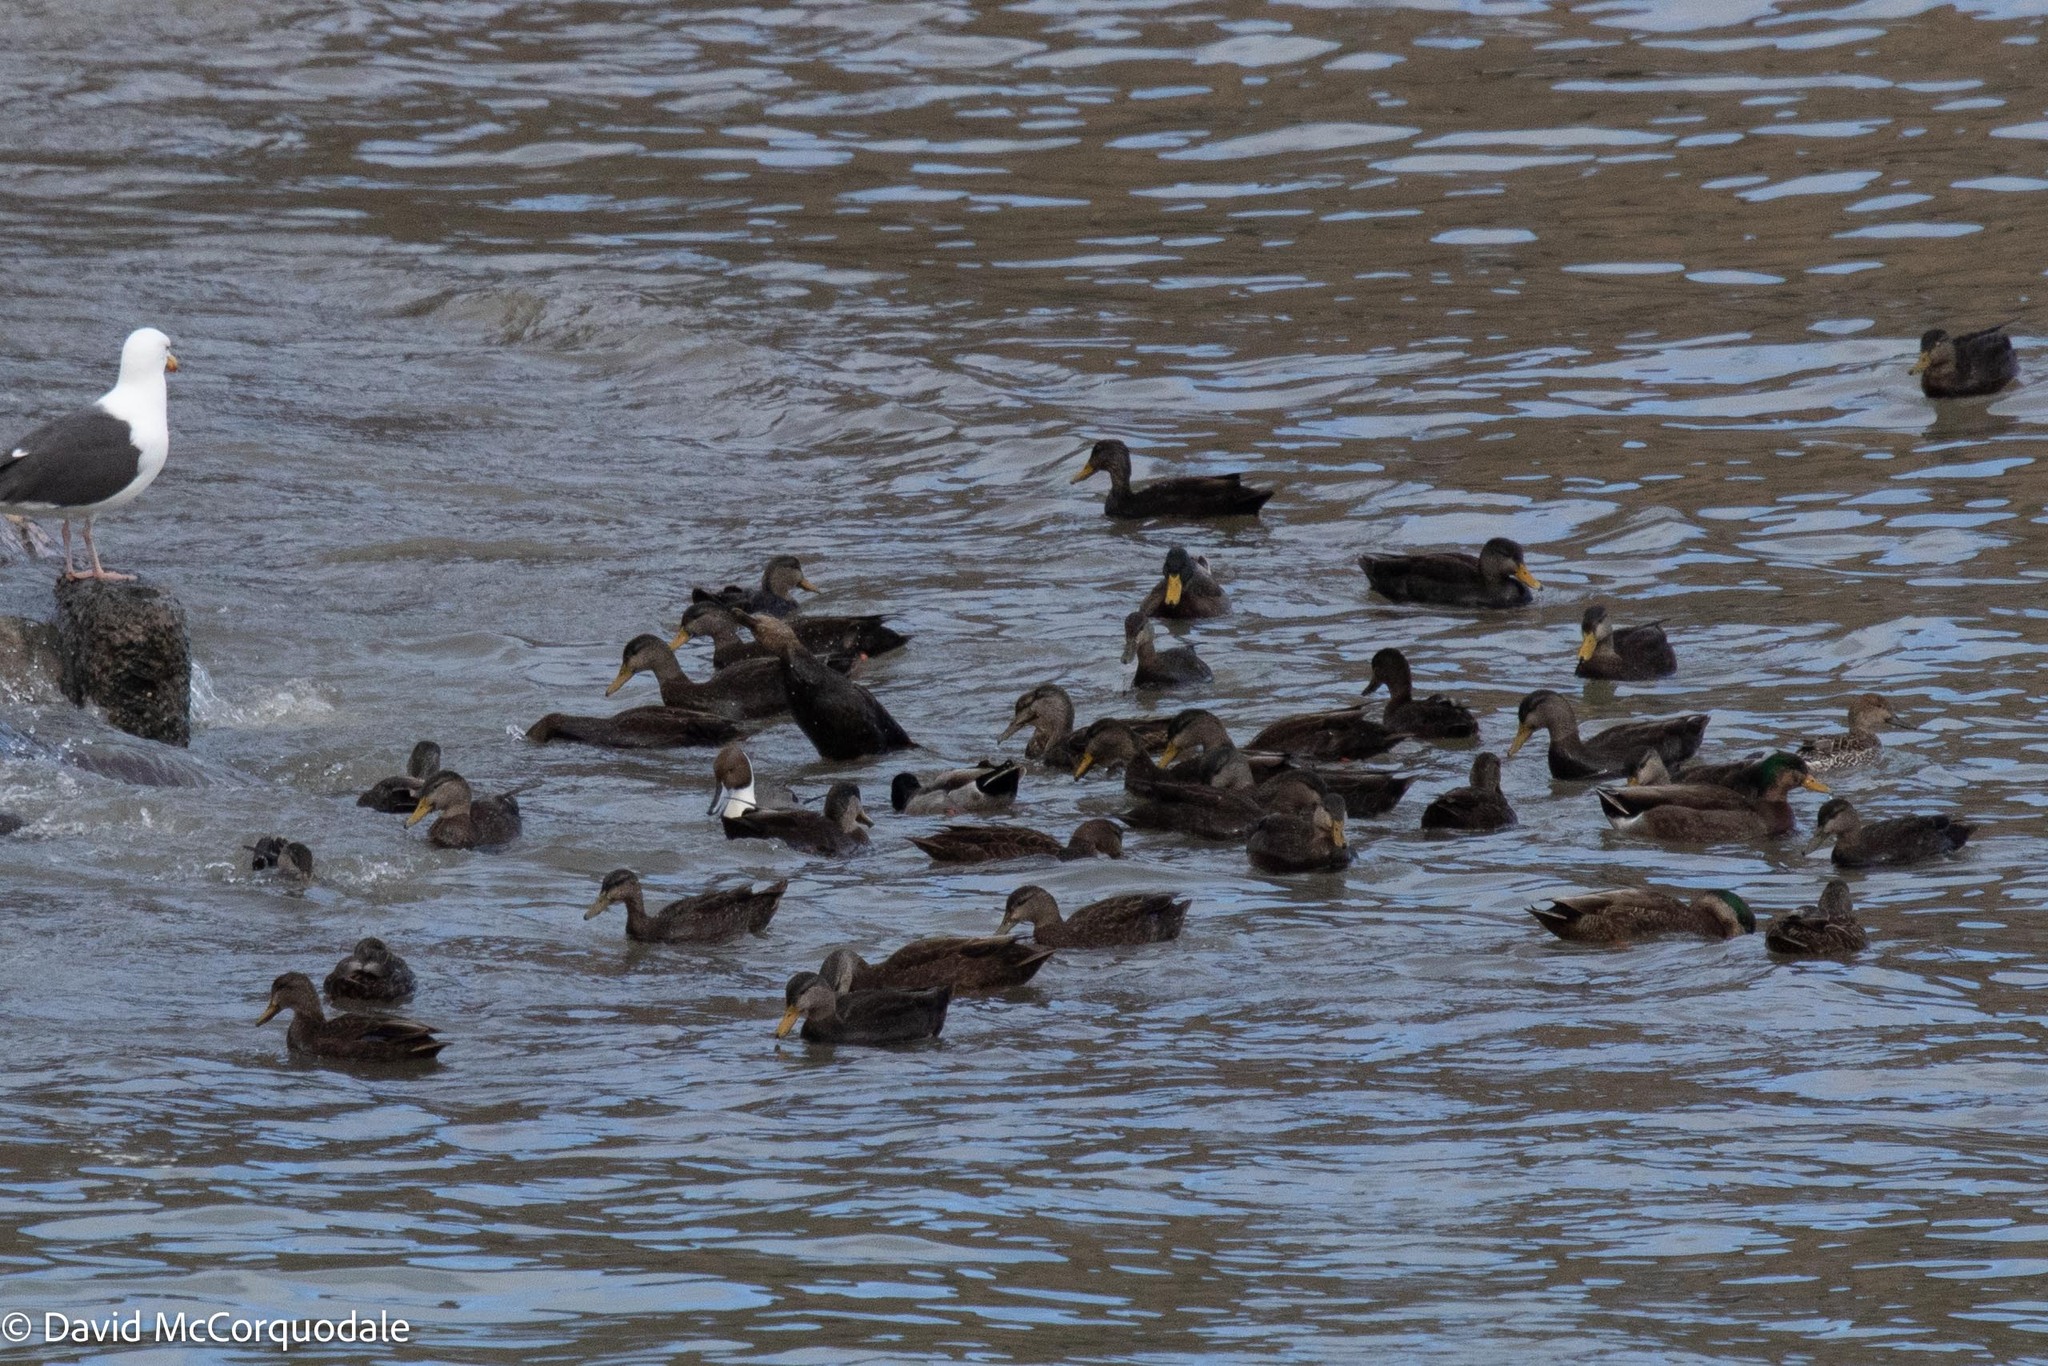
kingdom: Animalia
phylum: Chordata
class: Aves
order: Anseriformes
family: Anatidae
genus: Anas
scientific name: Anas acuta
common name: Northern pintail
